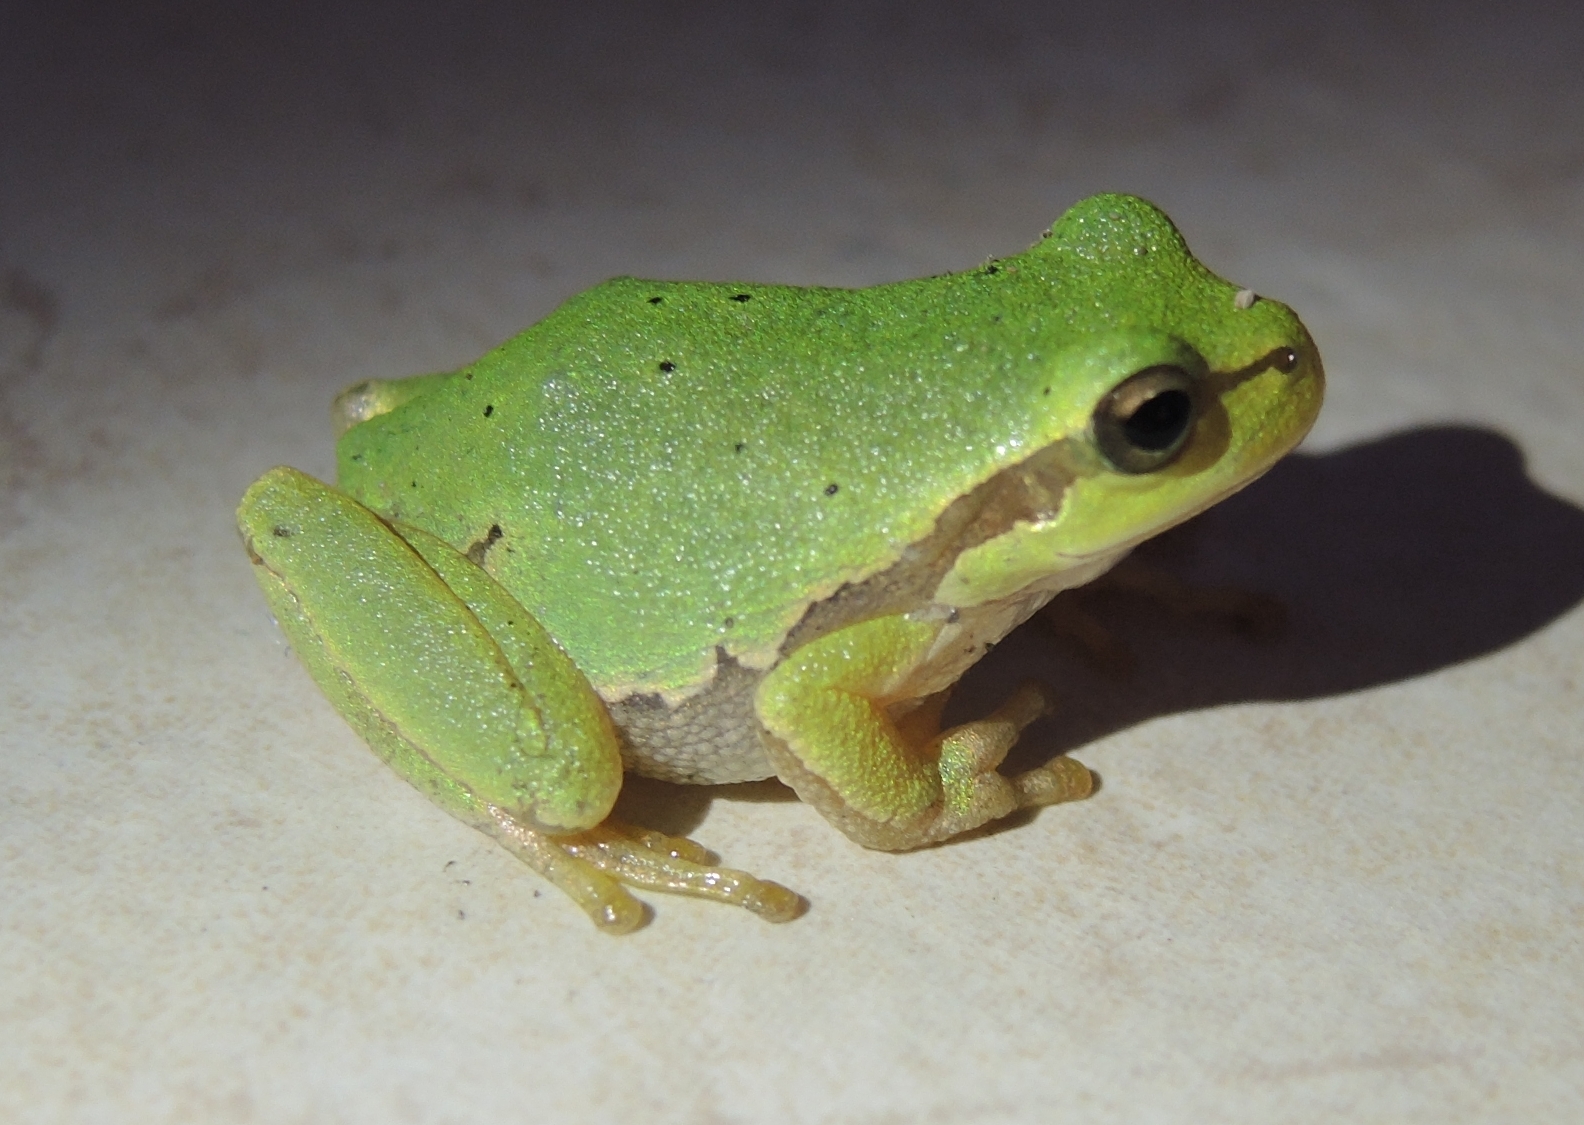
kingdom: Animalia
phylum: Chordata
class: Amphibia
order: Anura
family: Hylidae
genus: Hyla
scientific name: Hyla orientalis
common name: Caucasian treefrog
